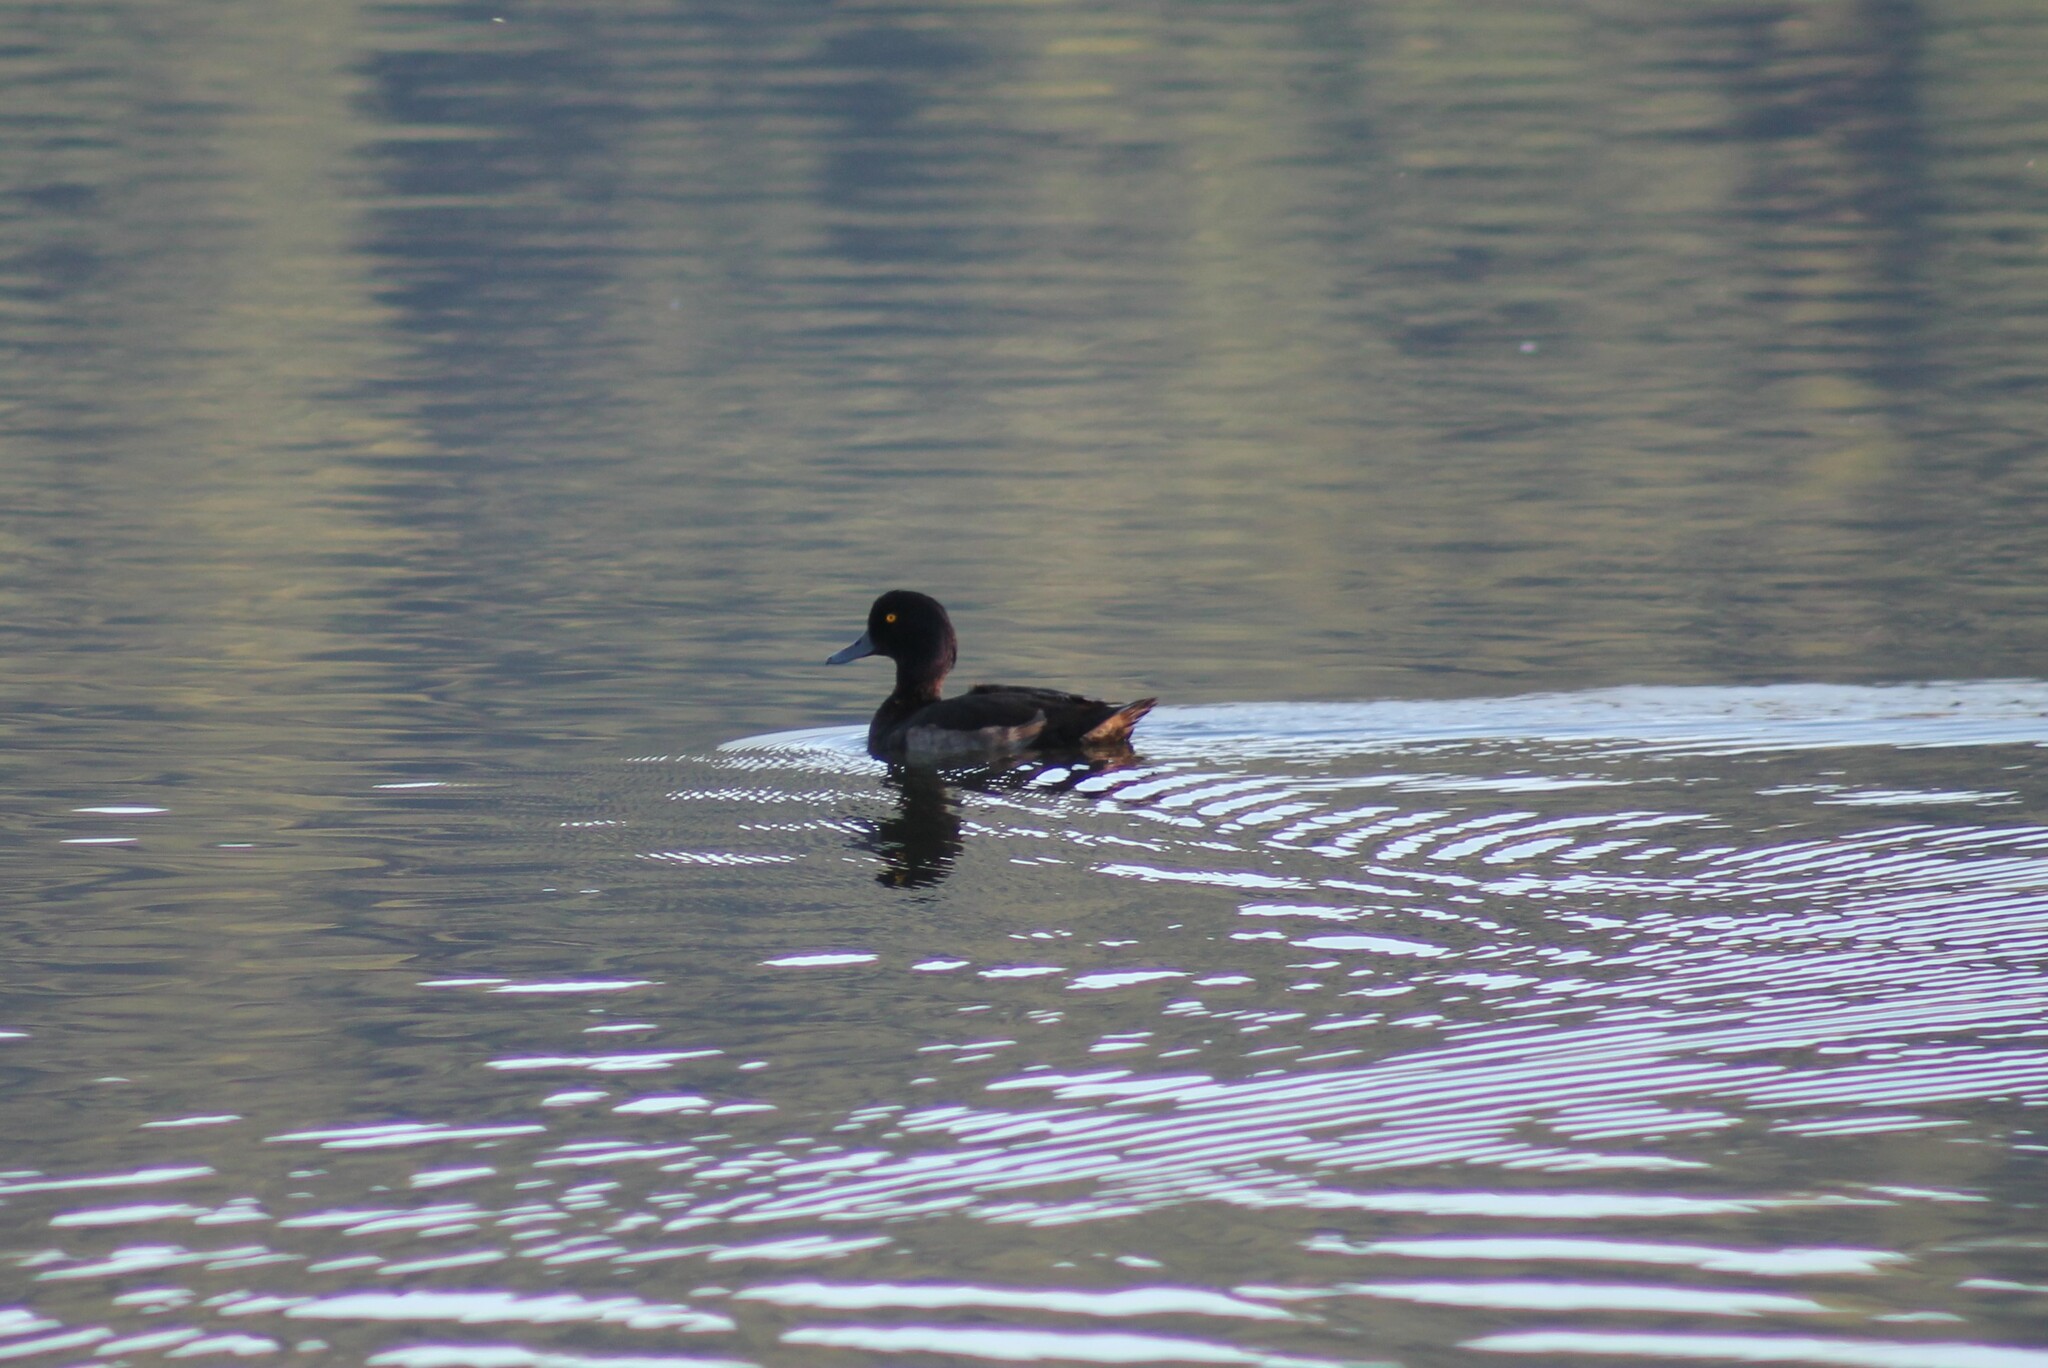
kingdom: Animalia
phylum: Chordata
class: Aves
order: Anseriformes
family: Anatidae
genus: Aythya
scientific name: Aythya fuligula
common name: Tufted duck
